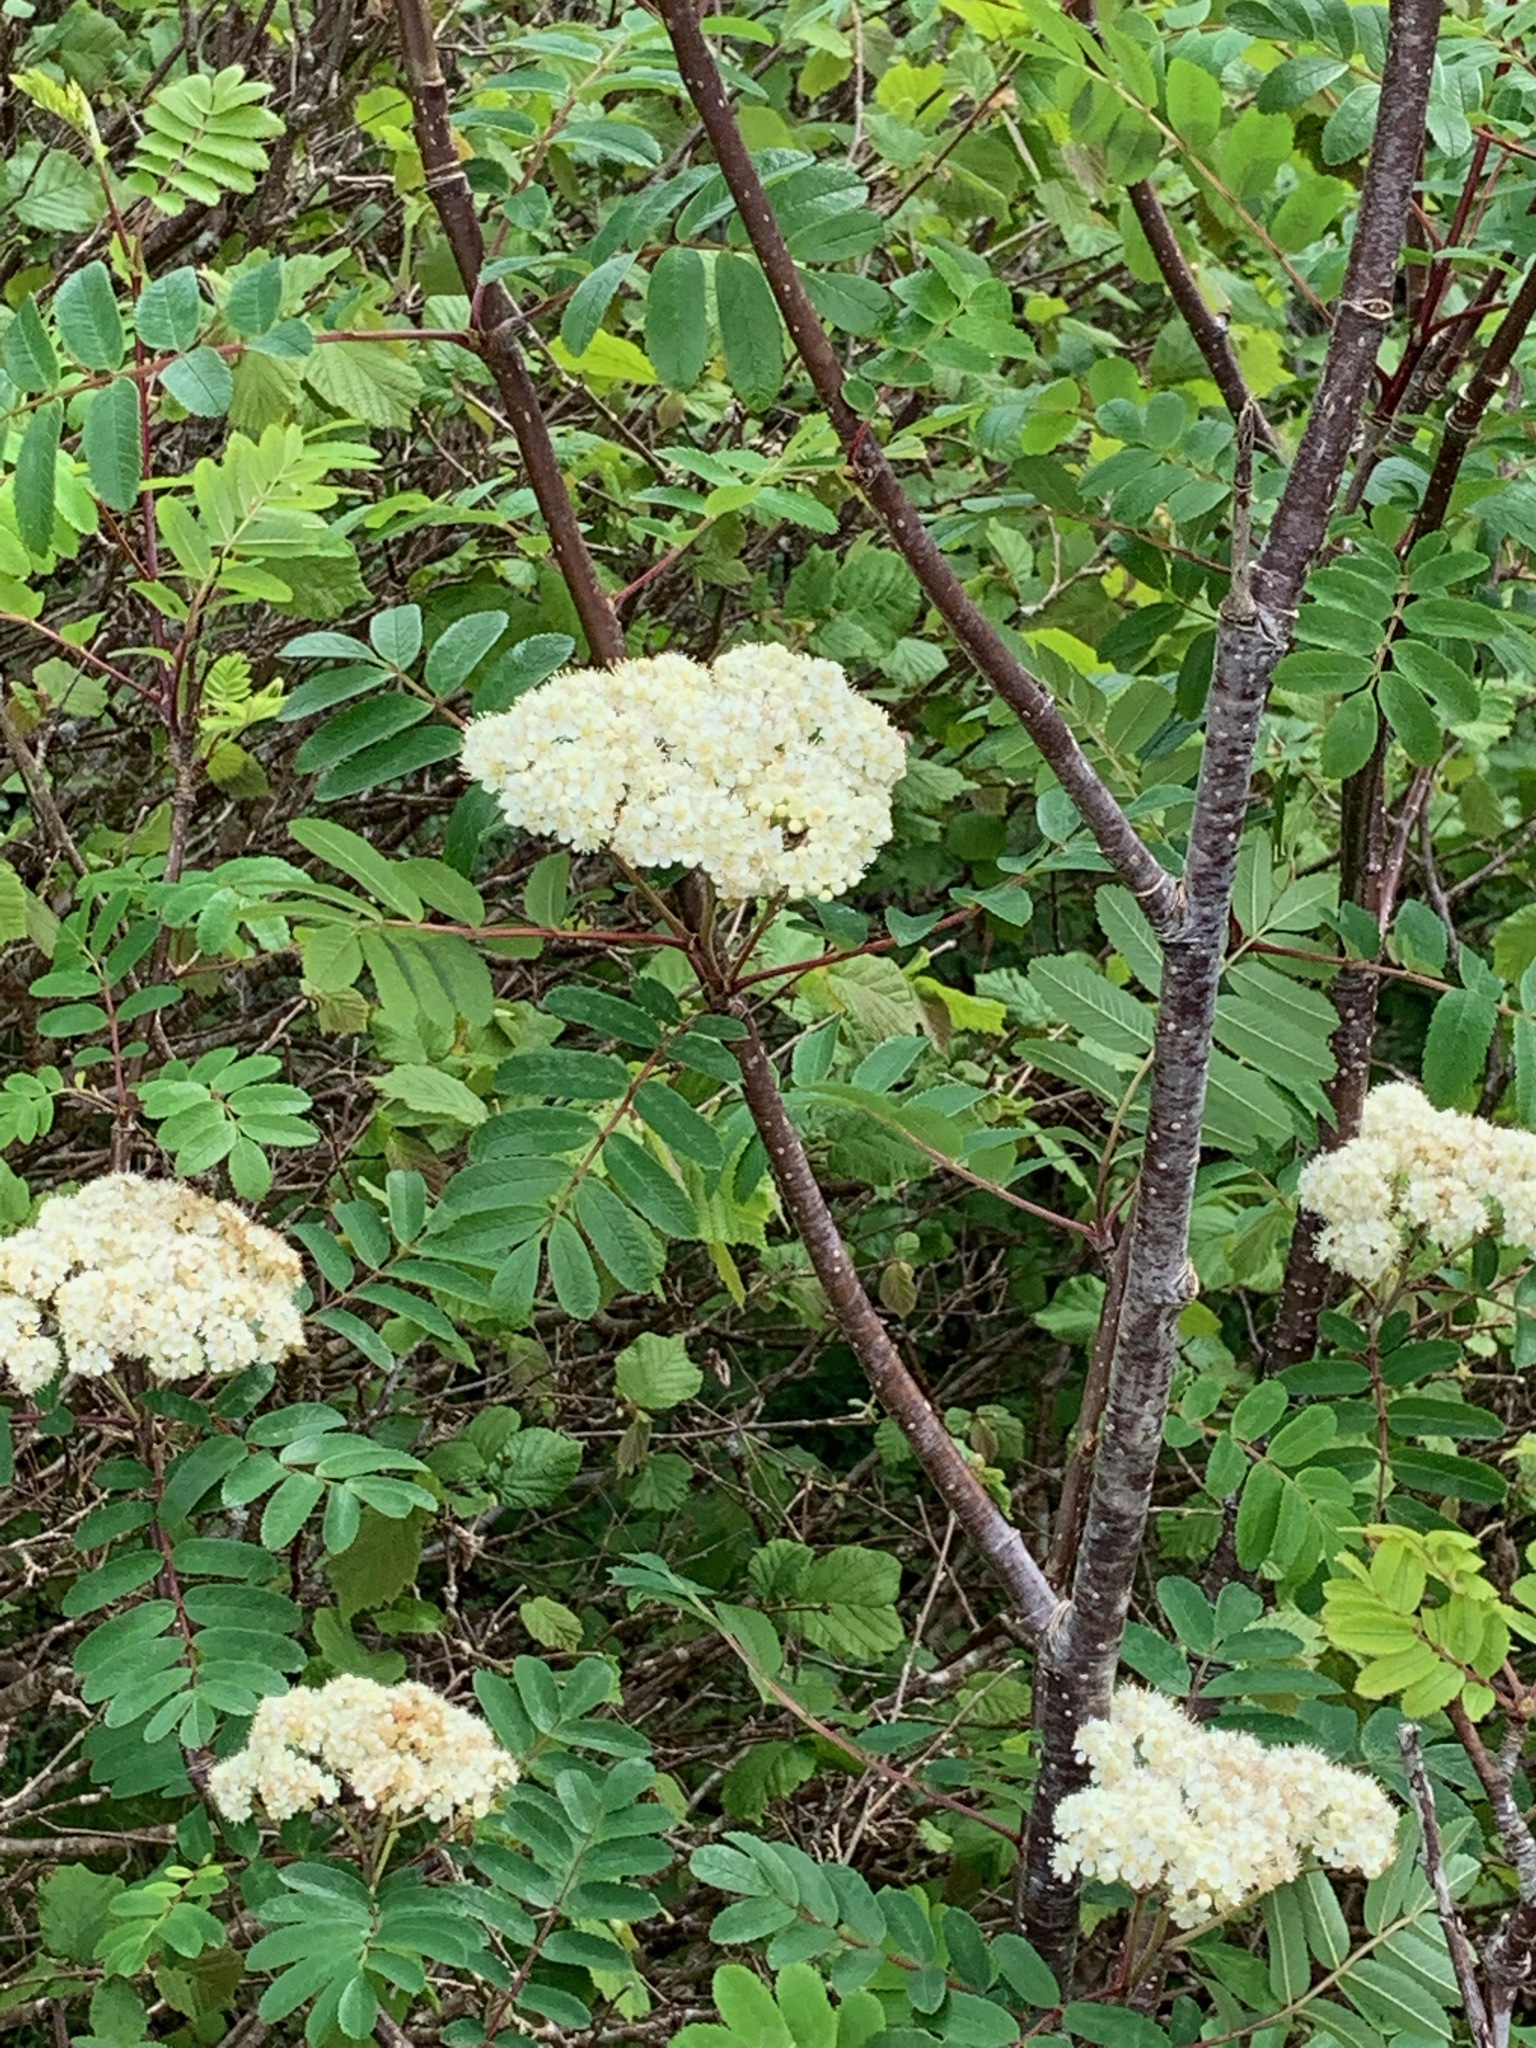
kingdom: Plantae
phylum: Tracheophyta
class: Magnoliopsida
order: Rosales
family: Rosaceae
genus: Sorbus
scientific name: Sorbus aucuparia
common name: Rowan
